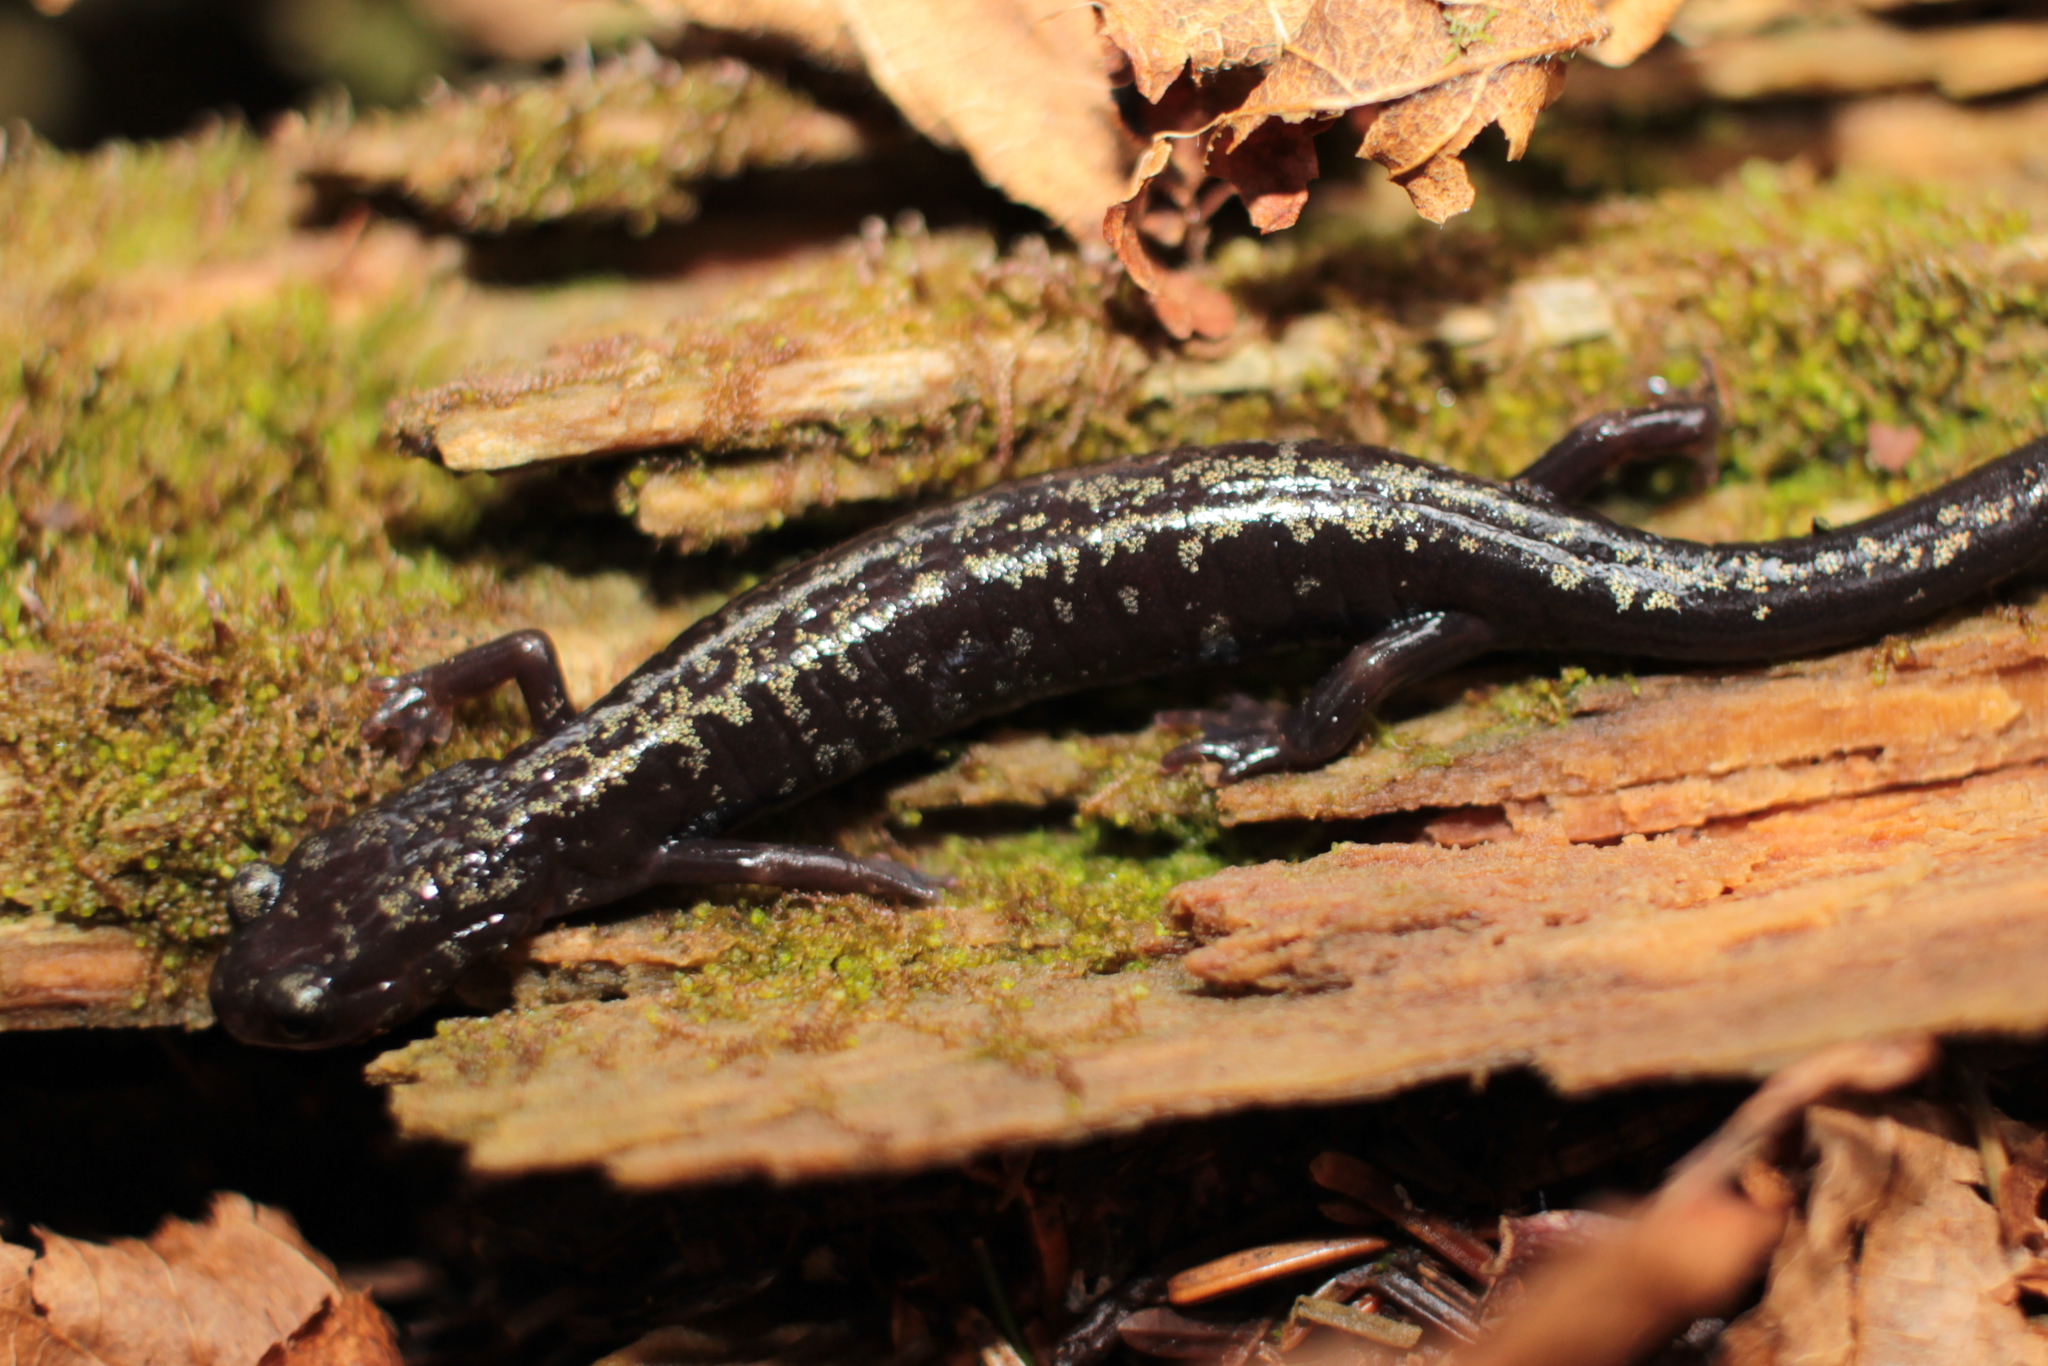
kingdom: Animalia
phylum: Chordata
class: Amphibia
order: Caudata
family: Plethodontidae
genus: Plethodon
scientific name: Plethodon welleri
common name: Weller's salamander
